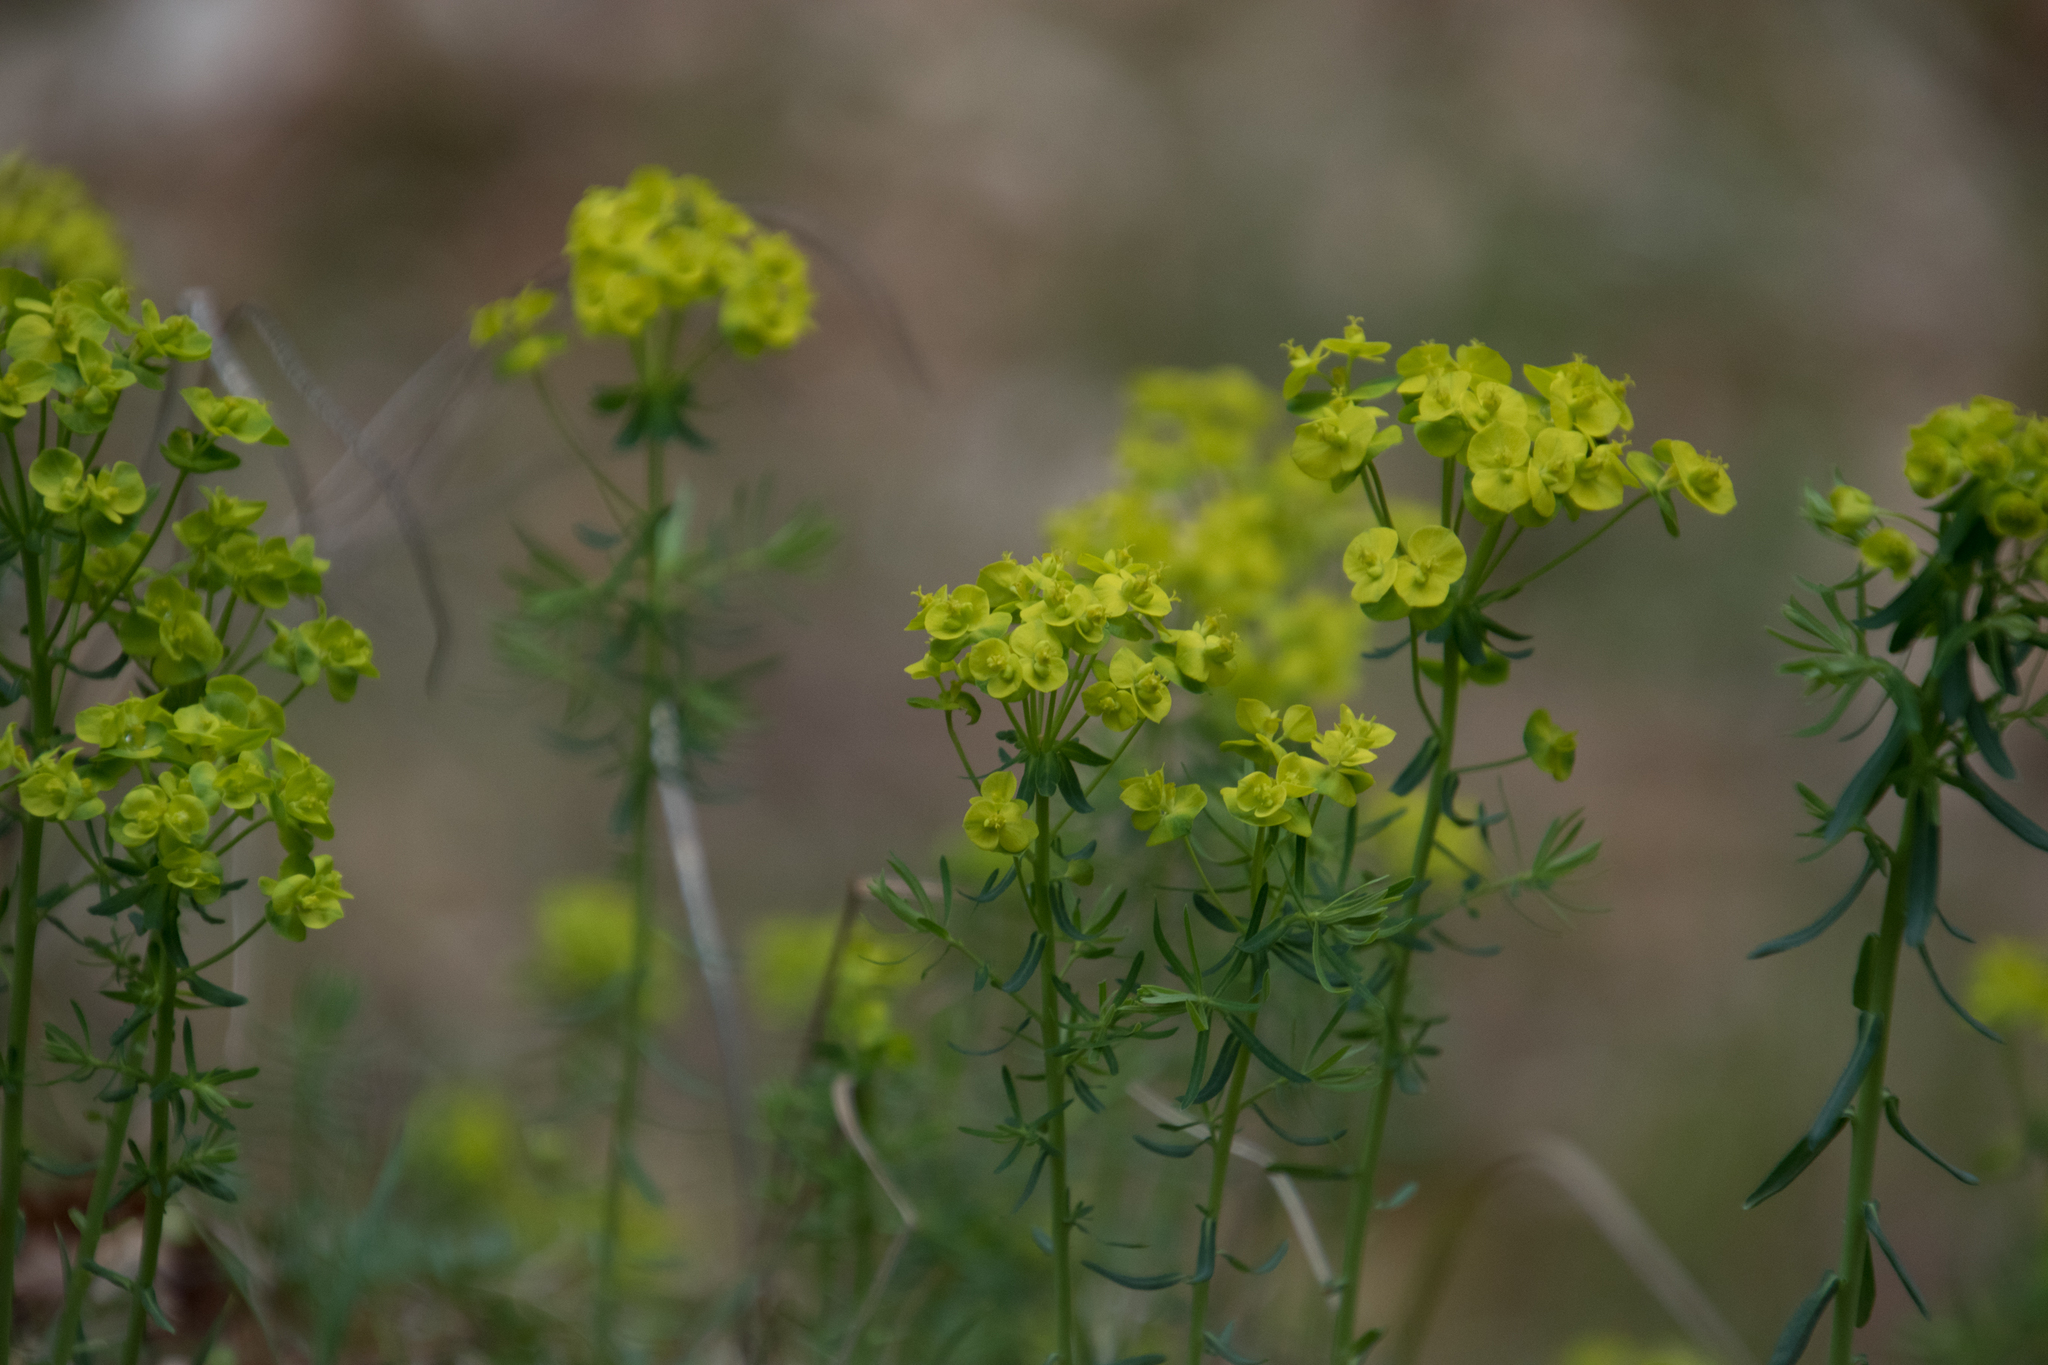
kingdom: Plantae
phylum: Tracheophyta
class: Magnoliopsida
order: Malpighiales
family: Euphorbiaceae
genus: Euphorbia
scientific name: Euphorbia cyparissias
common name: Cypress spurge
